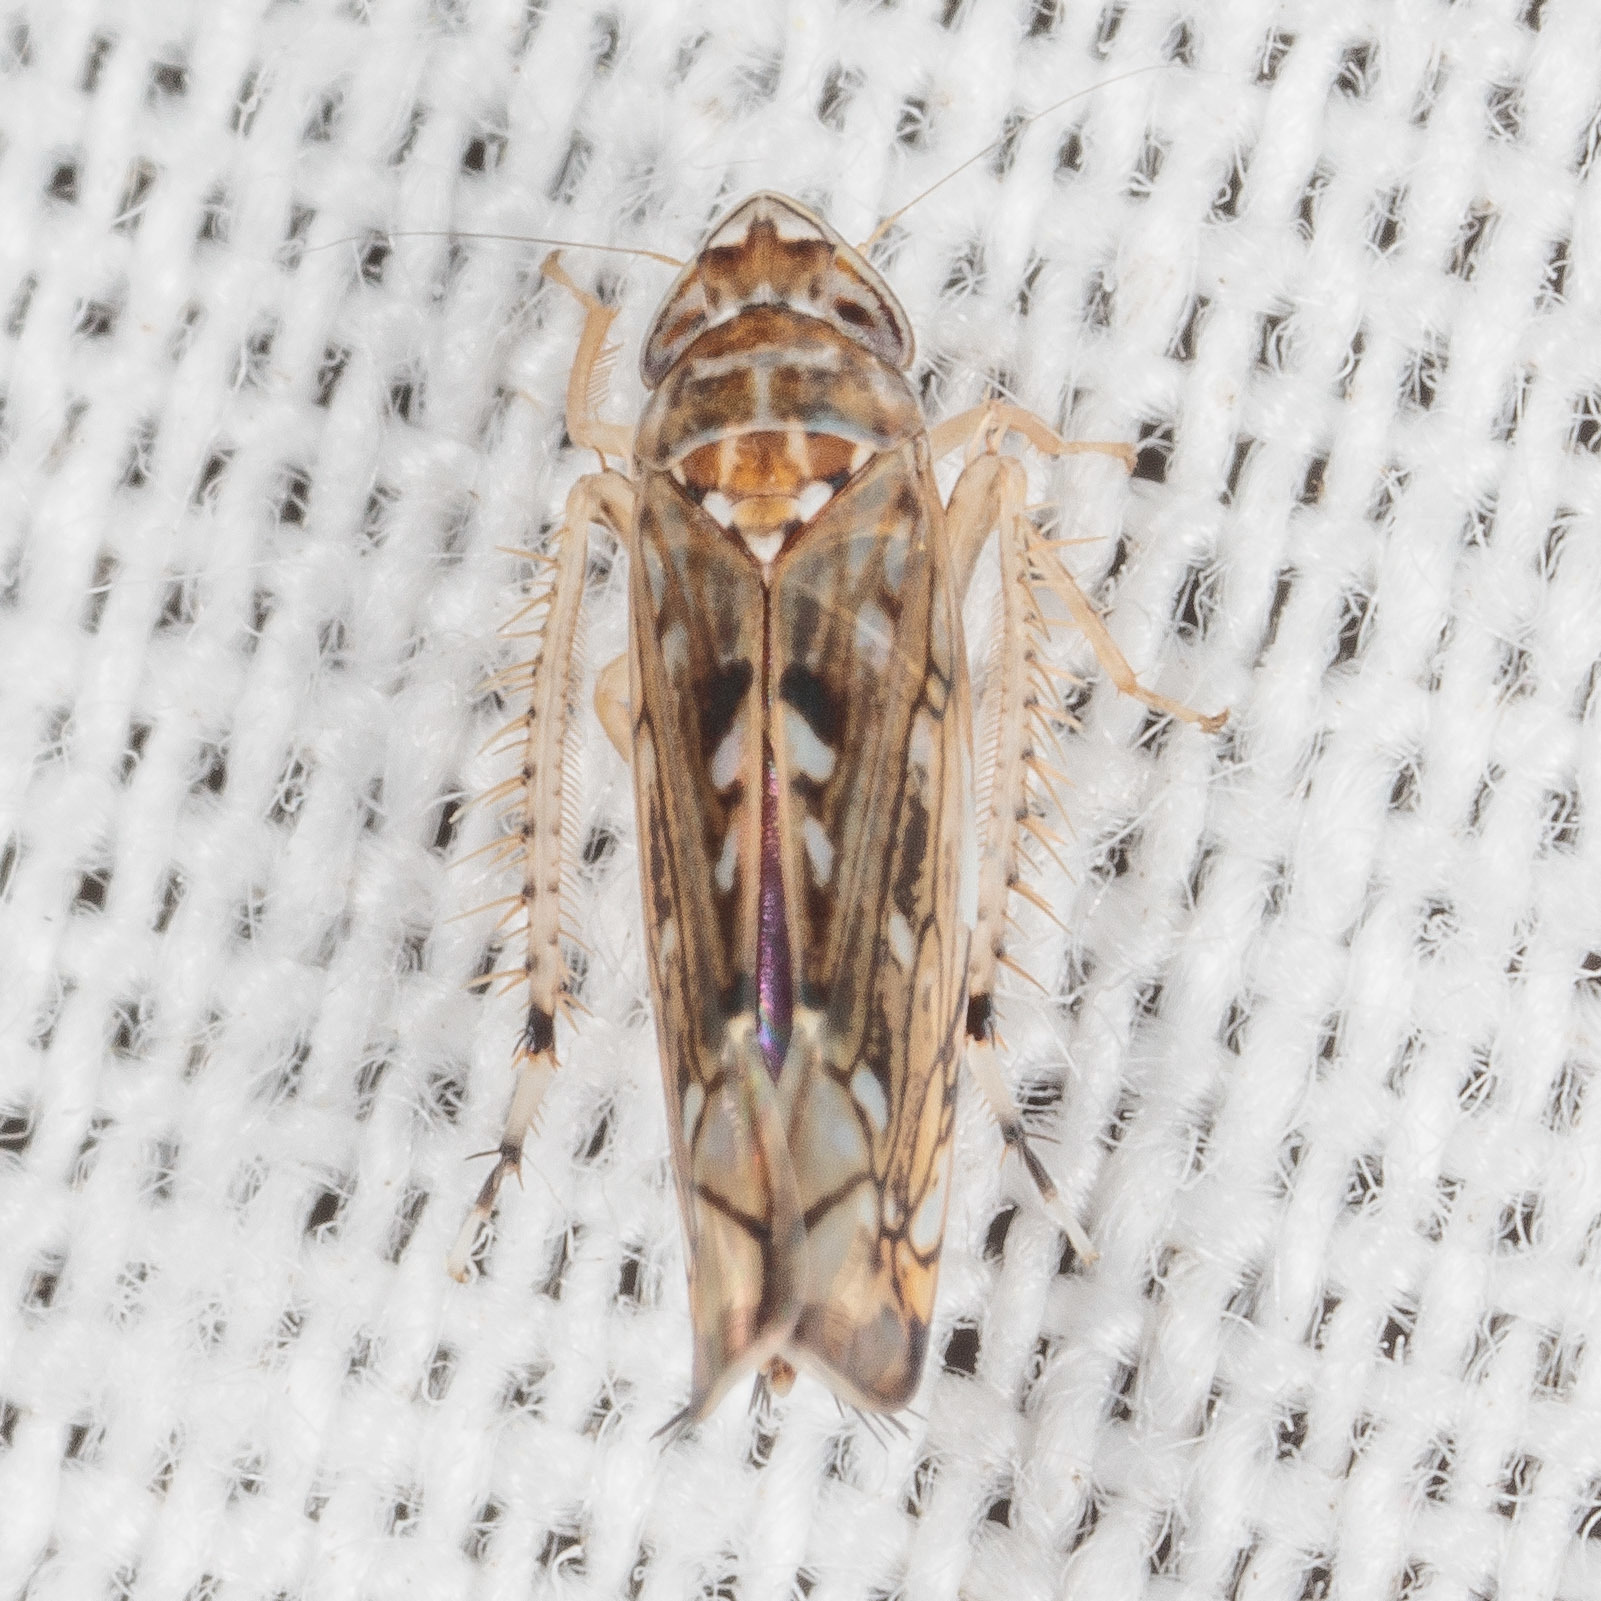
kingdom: Animalia
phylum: Arthropoda
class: Insecta
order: Hemiptera
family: Cicadellidae
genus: Scaphoideus
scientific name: Scaphoideus immistus
